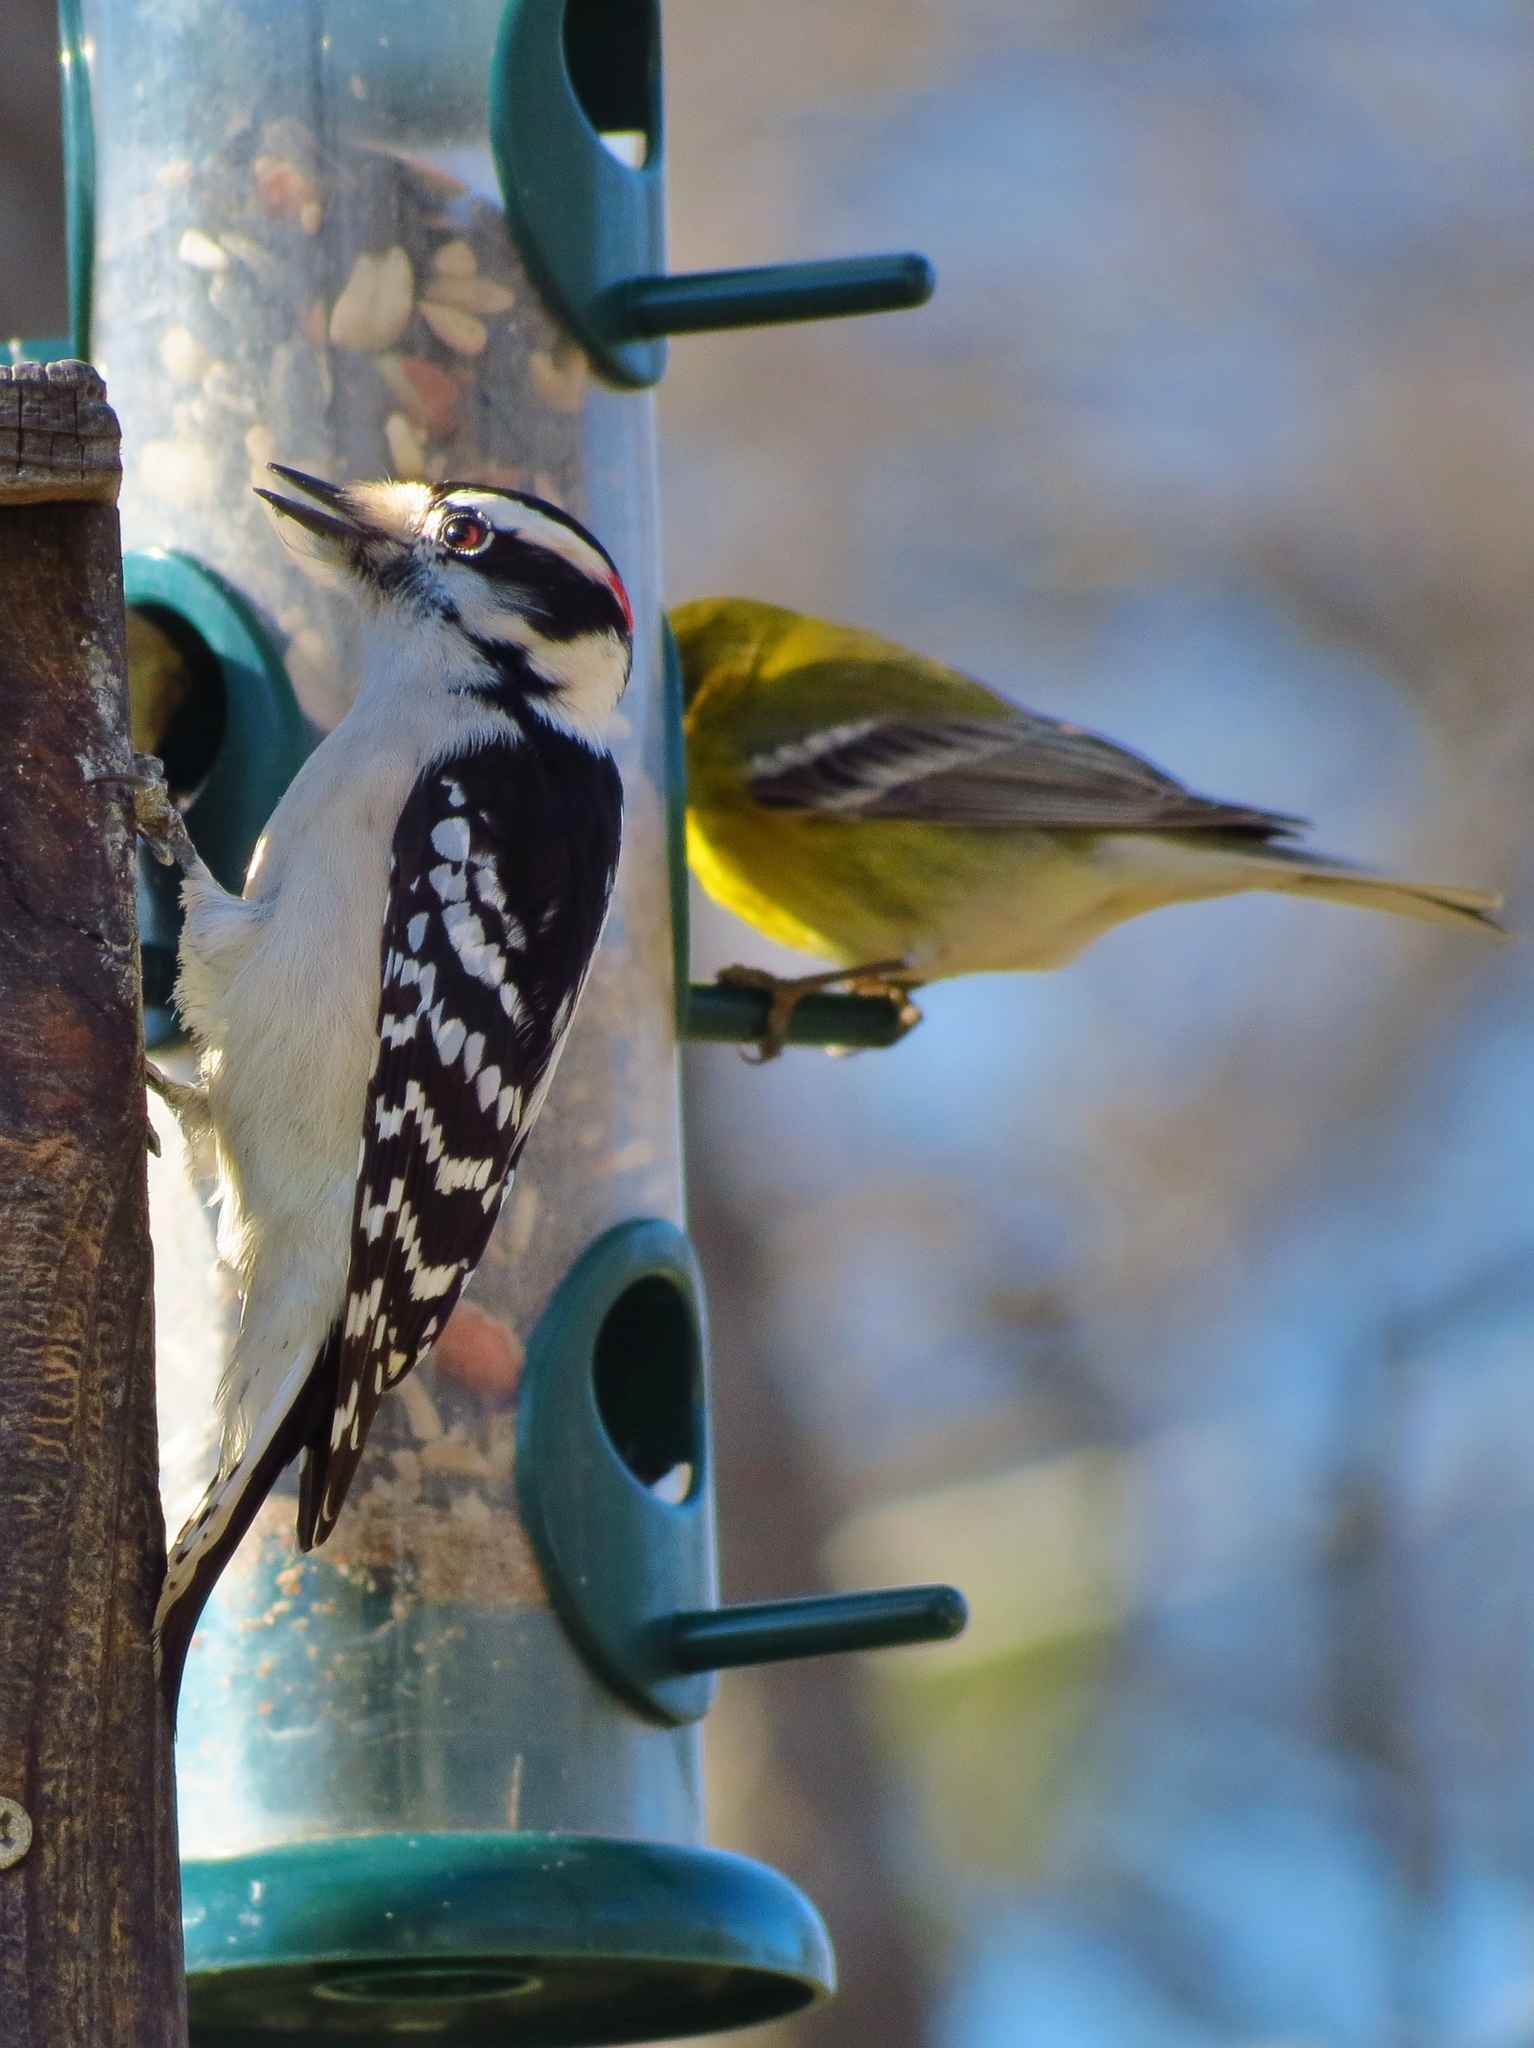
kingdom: Animalia
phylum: Chordata
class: Aves
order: Piciformes
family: Picidae
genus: Dryobates
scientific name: Dryobates pubescens
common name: Downy woodpecker
